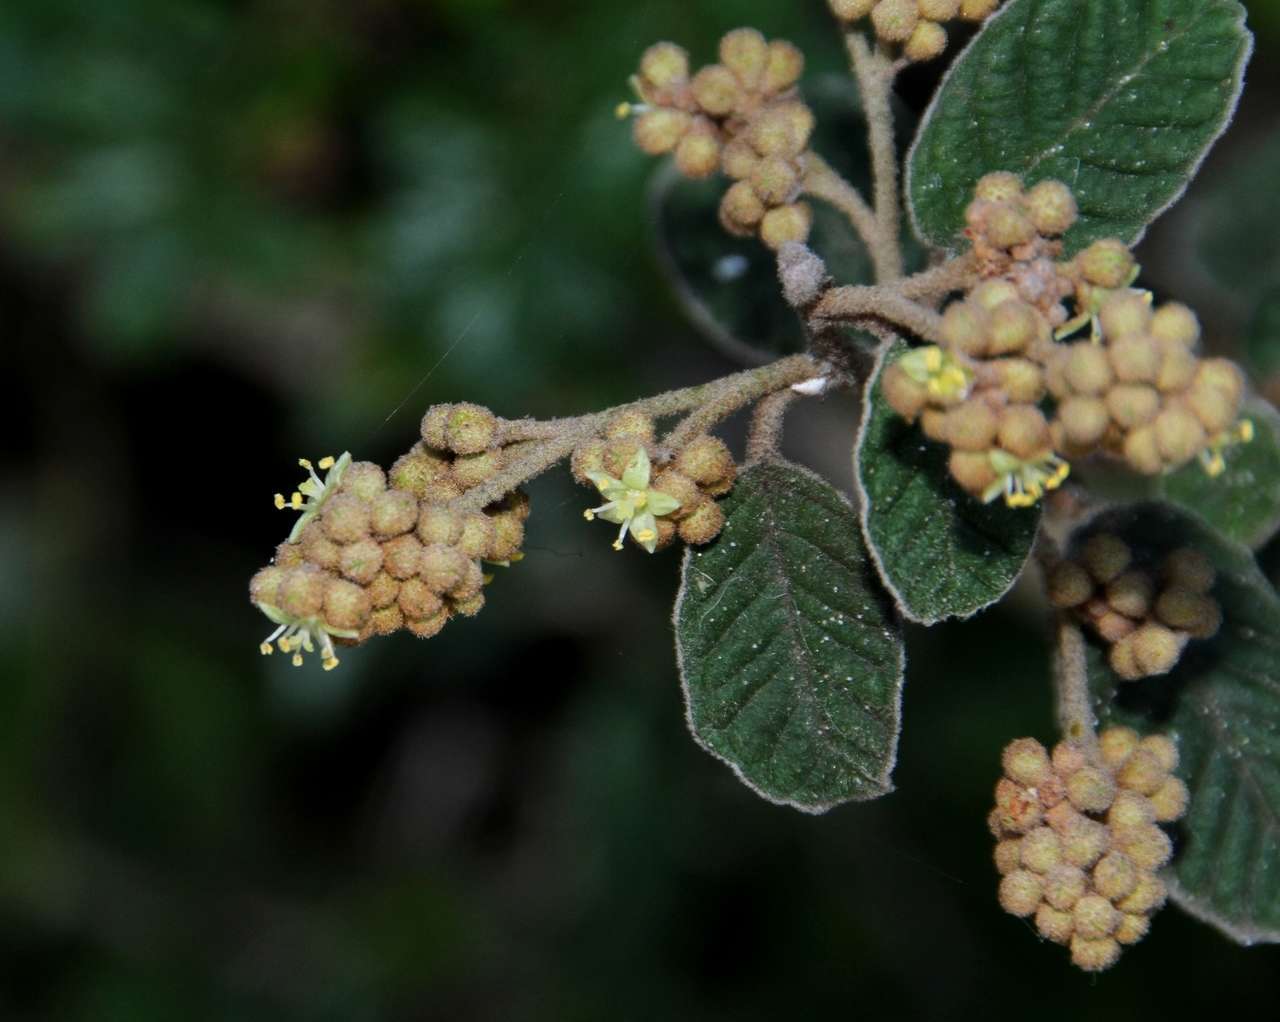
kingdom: Plantae
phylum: Tracheophyta
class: Magnoliopsida
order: Rosales
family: Rhamnaceae
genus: Pomaderris
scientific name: Pomaderris oraria
